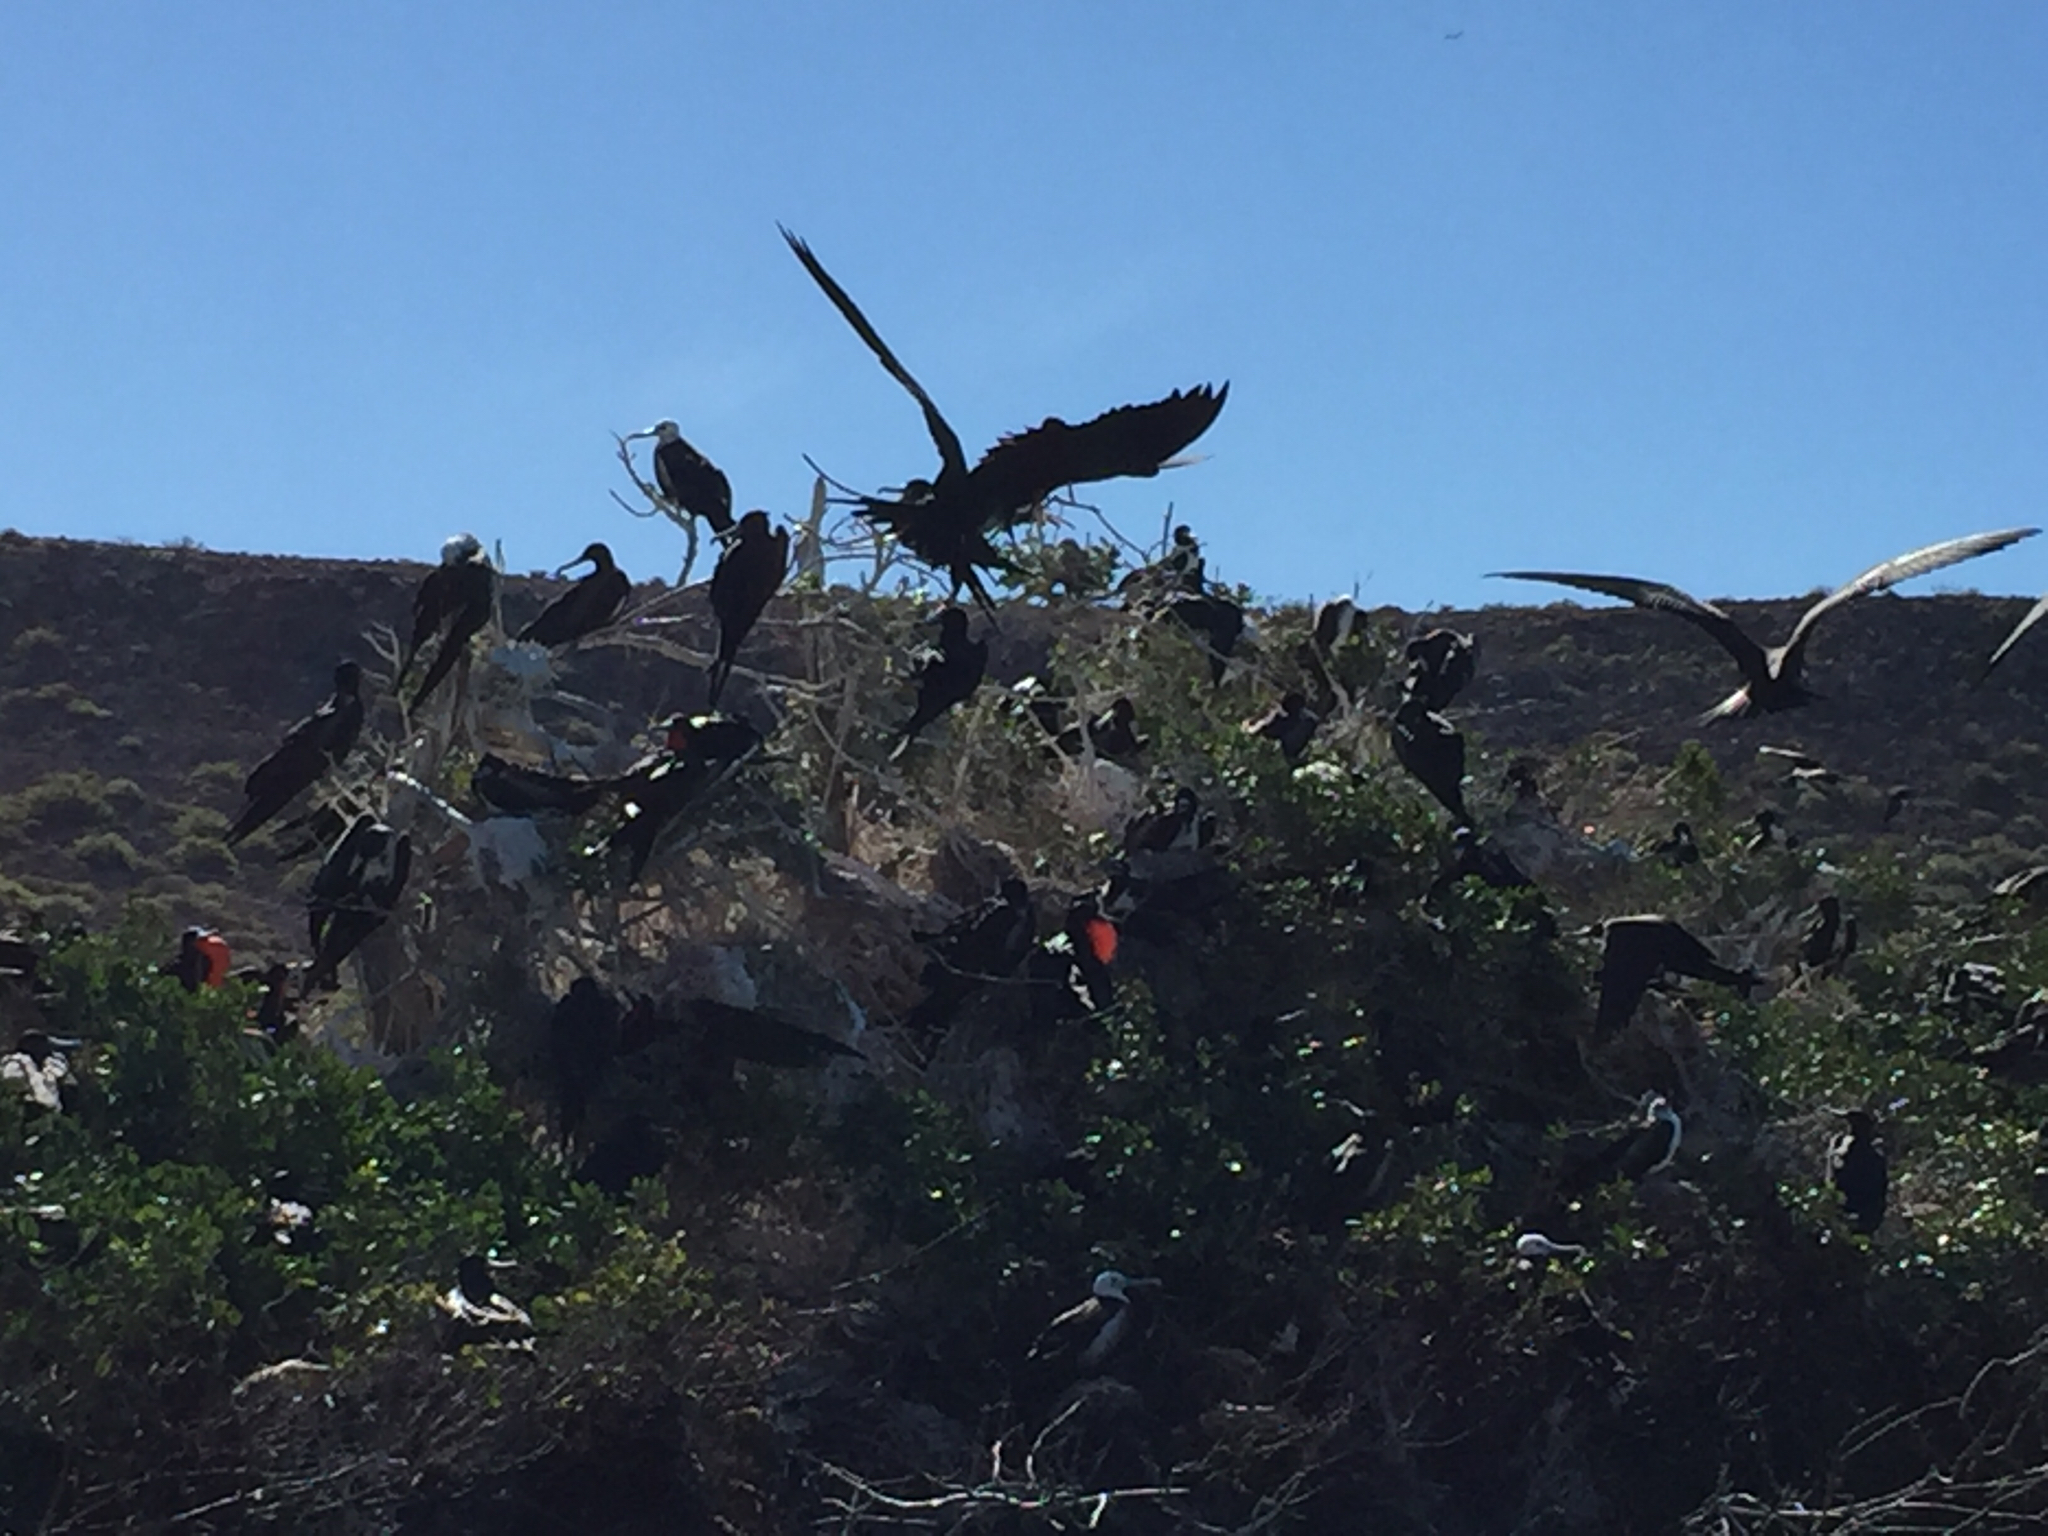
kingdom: Animalia
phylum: Chordata
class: Aves
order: Suliformes
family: Fregatidae
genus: Fregata
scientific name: Fregata magnificens
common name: Magnificent frigatebird
